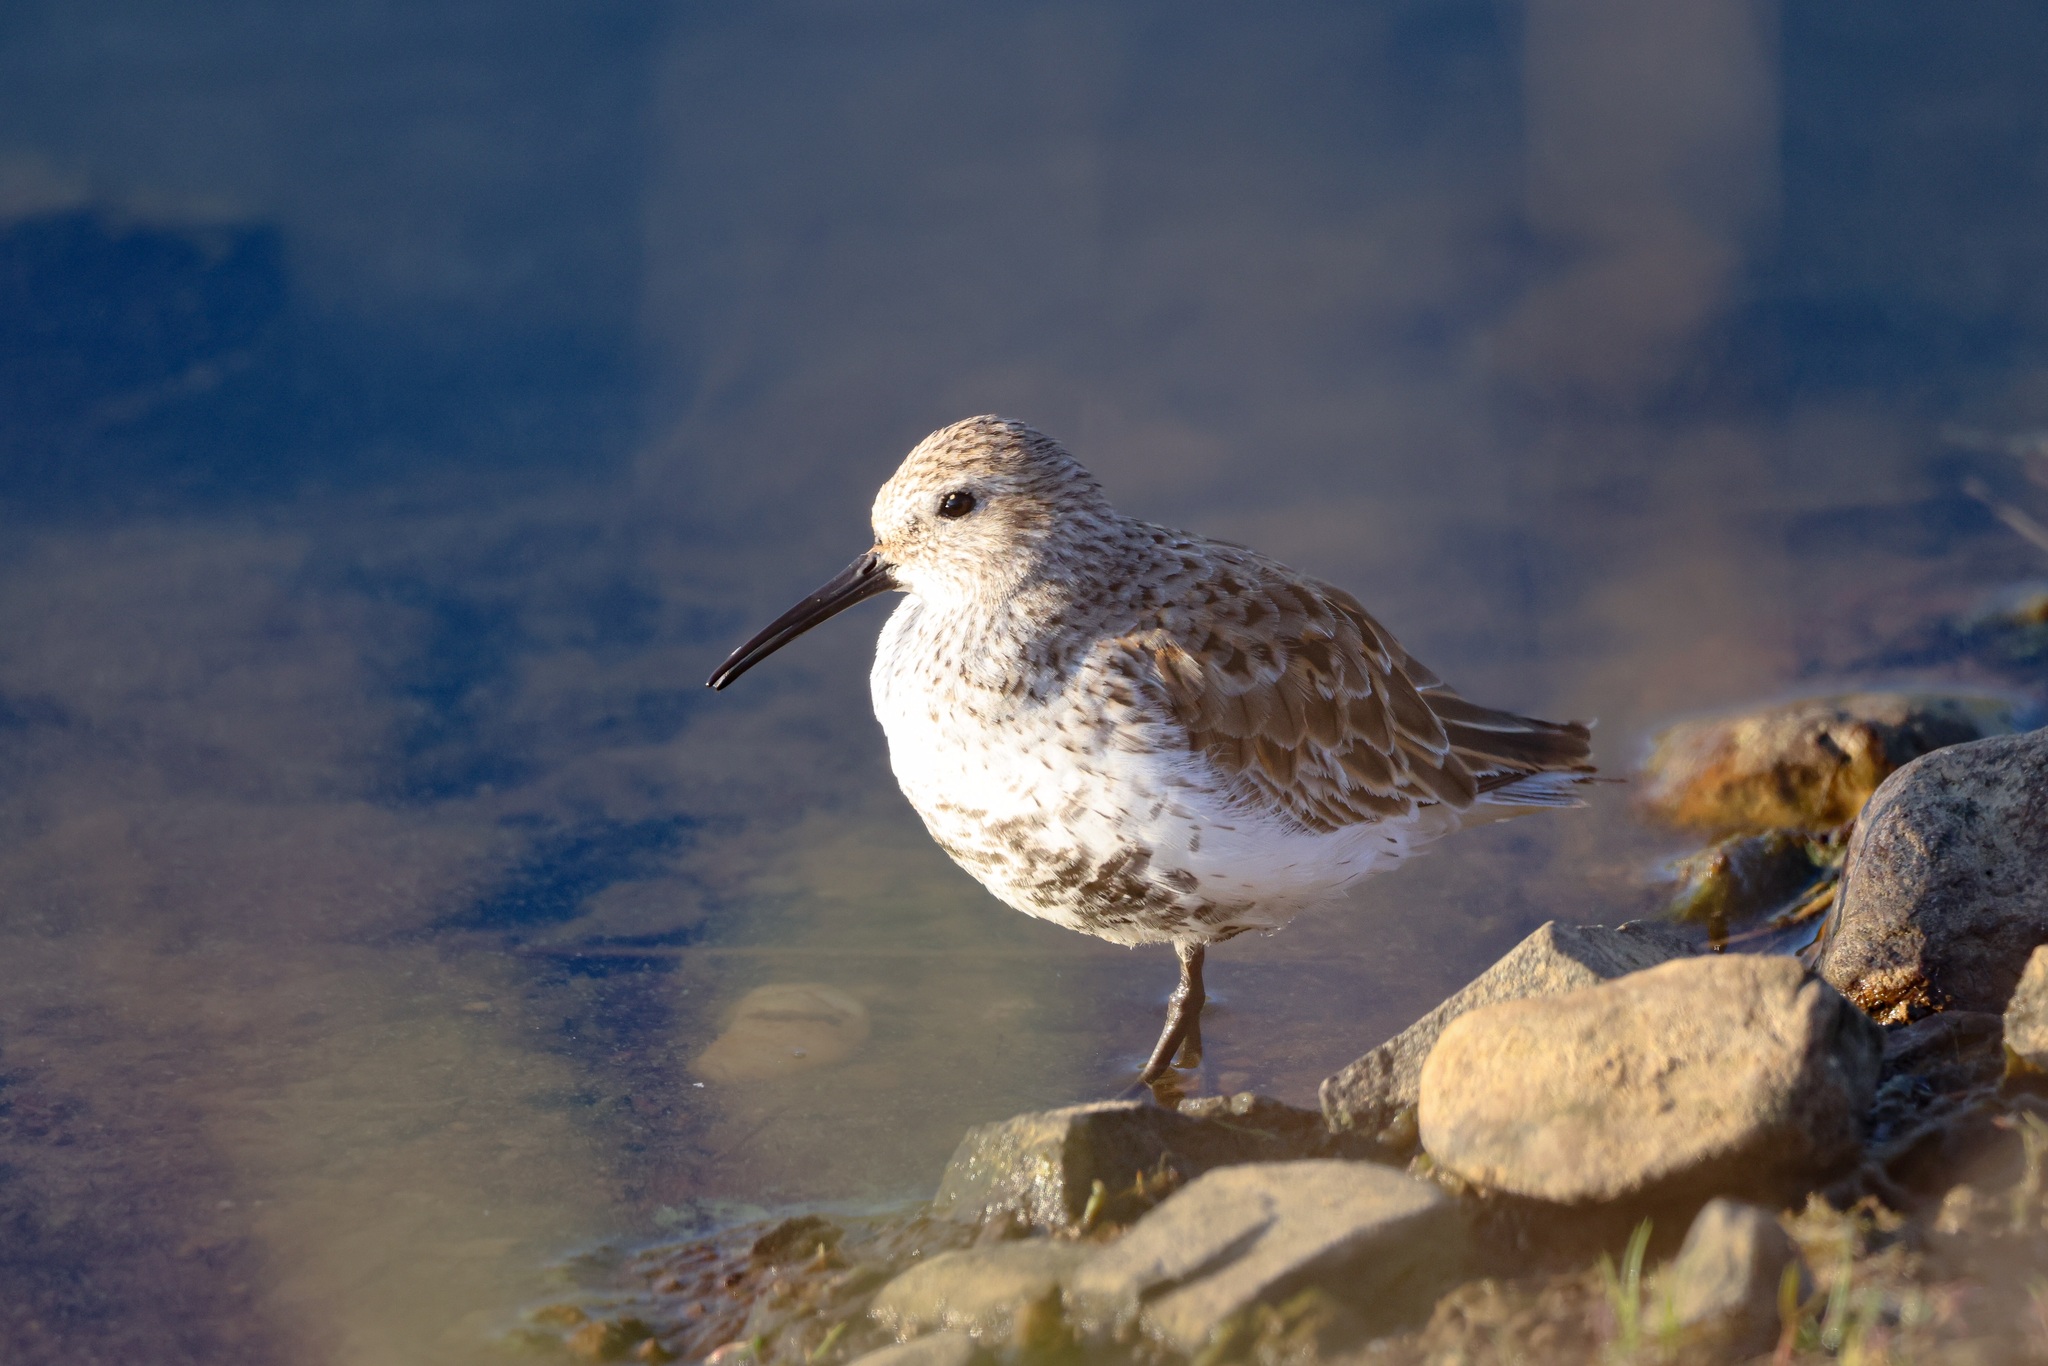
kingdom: Animalia
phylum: Chordata
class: Aves
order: Charadriiformes
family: Scolopacidae
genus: Calidris
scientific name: Calidris alpina
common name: Dunlin
